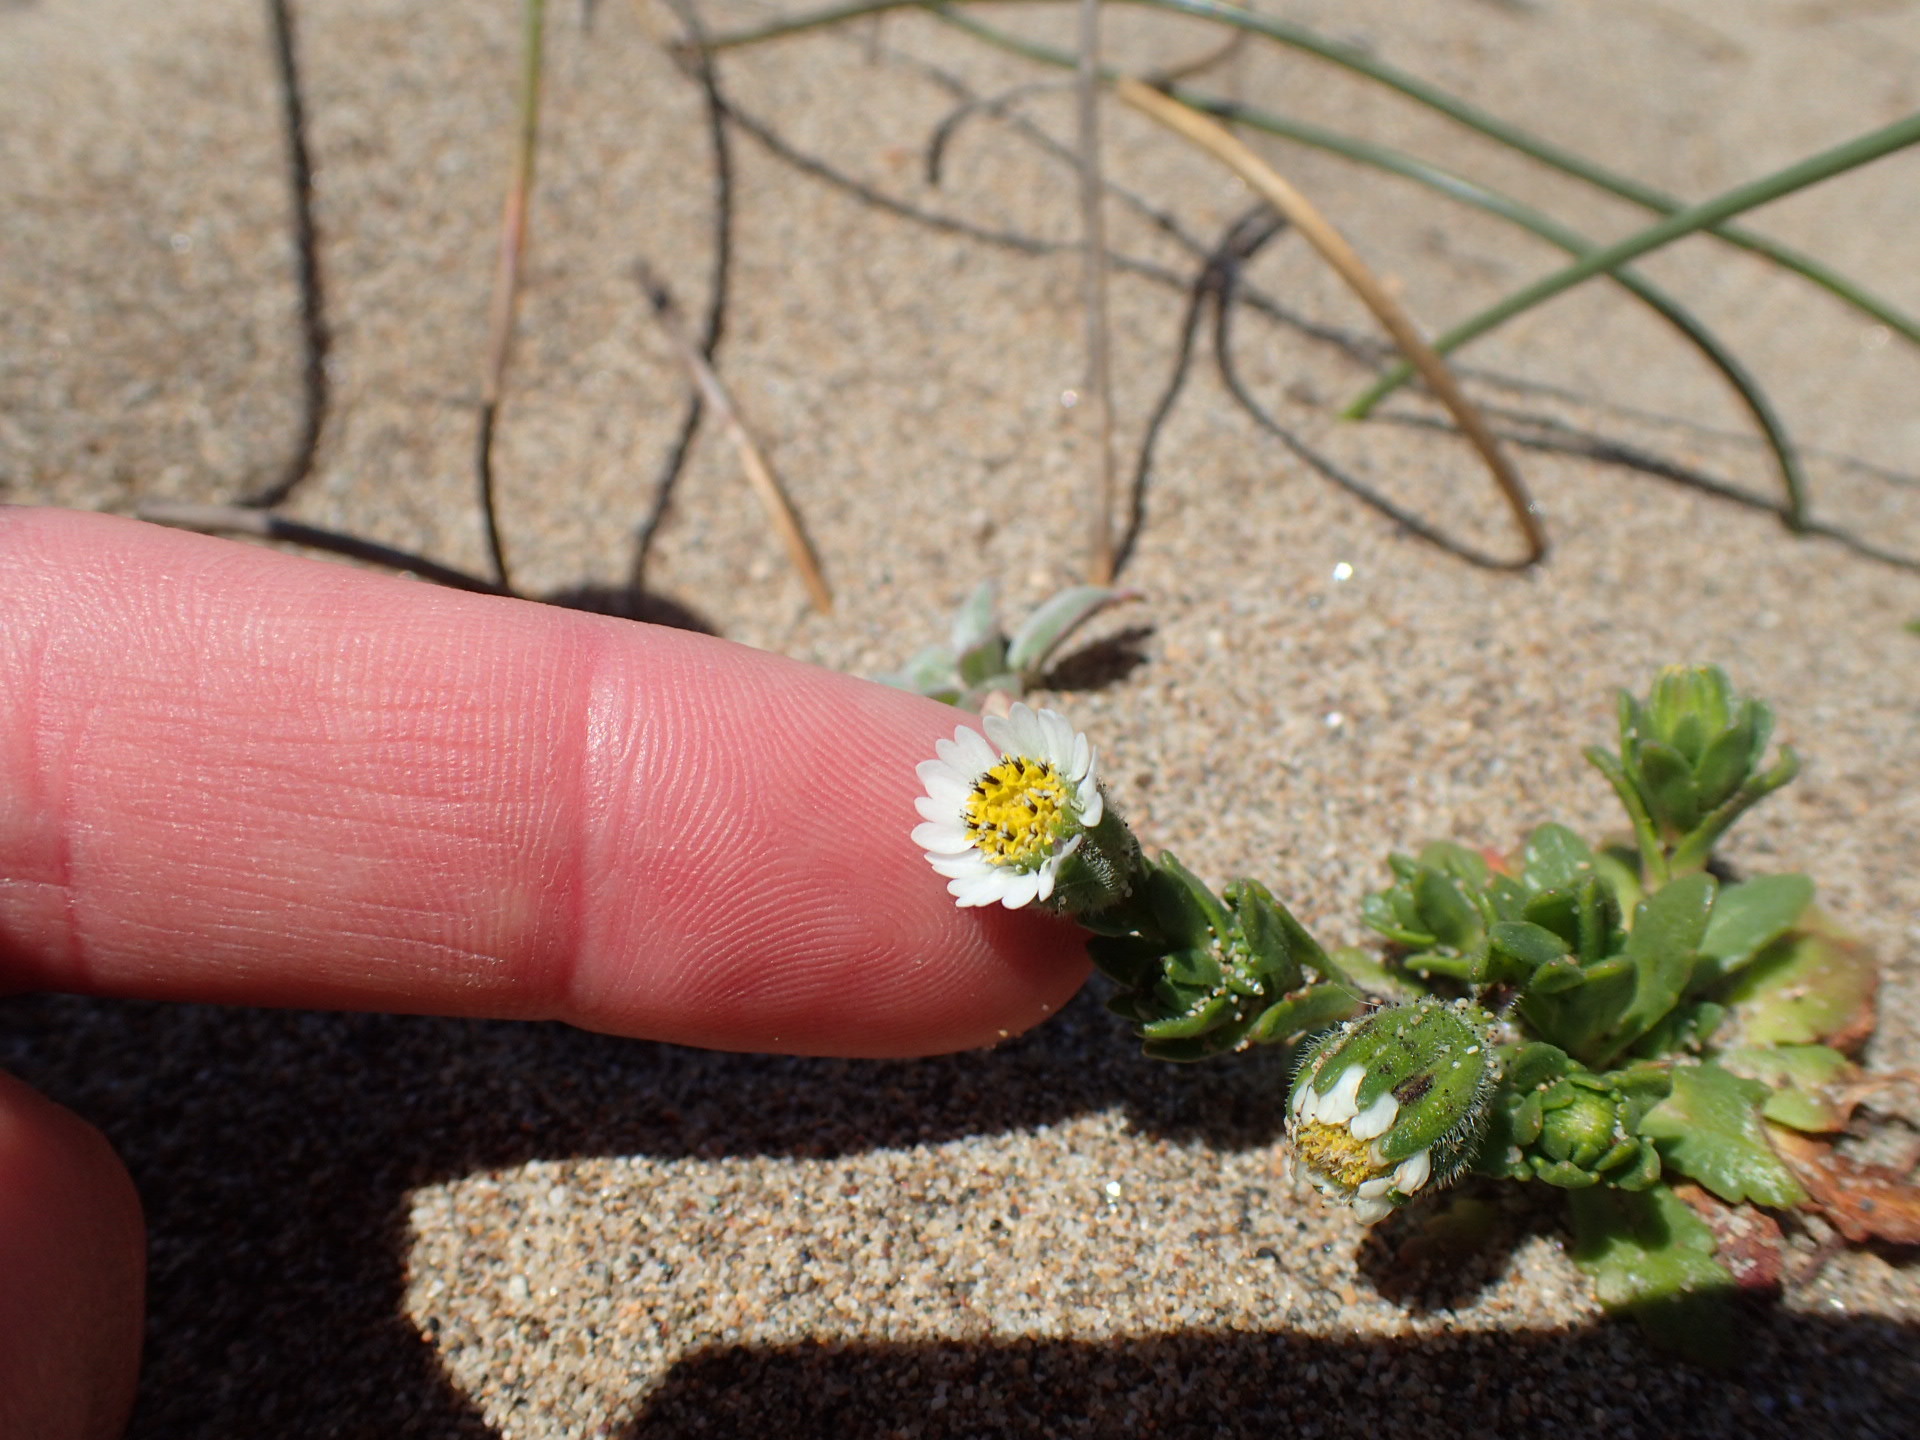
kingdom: Plantae
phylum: Tracheophyta
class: Magnoliopsida
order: Asterales
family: Asteraceae
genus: Layia
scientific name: Layia carnosa
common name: Beach layia
